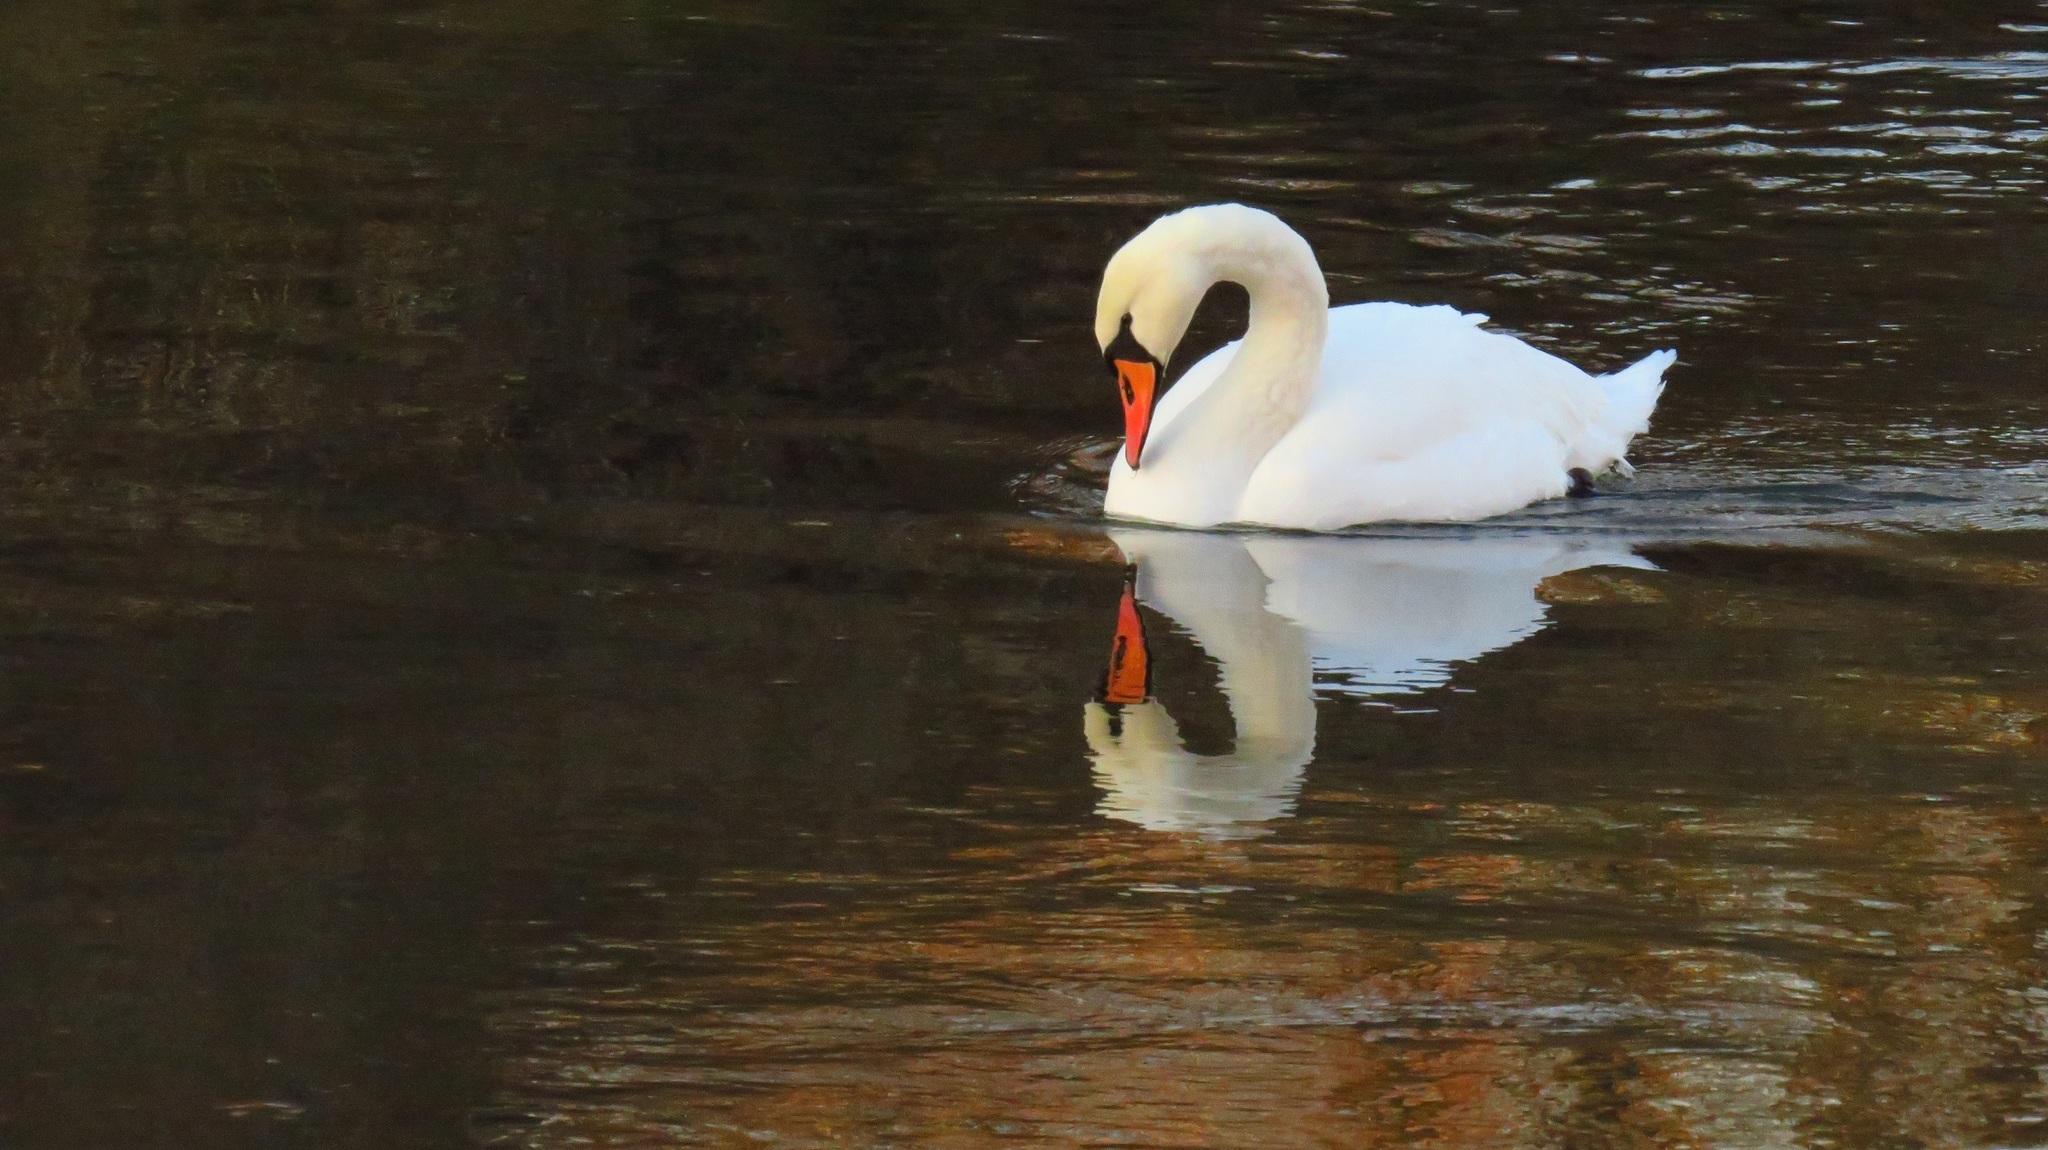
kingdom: Animalia
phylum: Chordata
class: Aves
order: Anseriformes
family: Anatidae
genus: Cygnus
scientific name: Cygnus olor
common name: Mute swan
